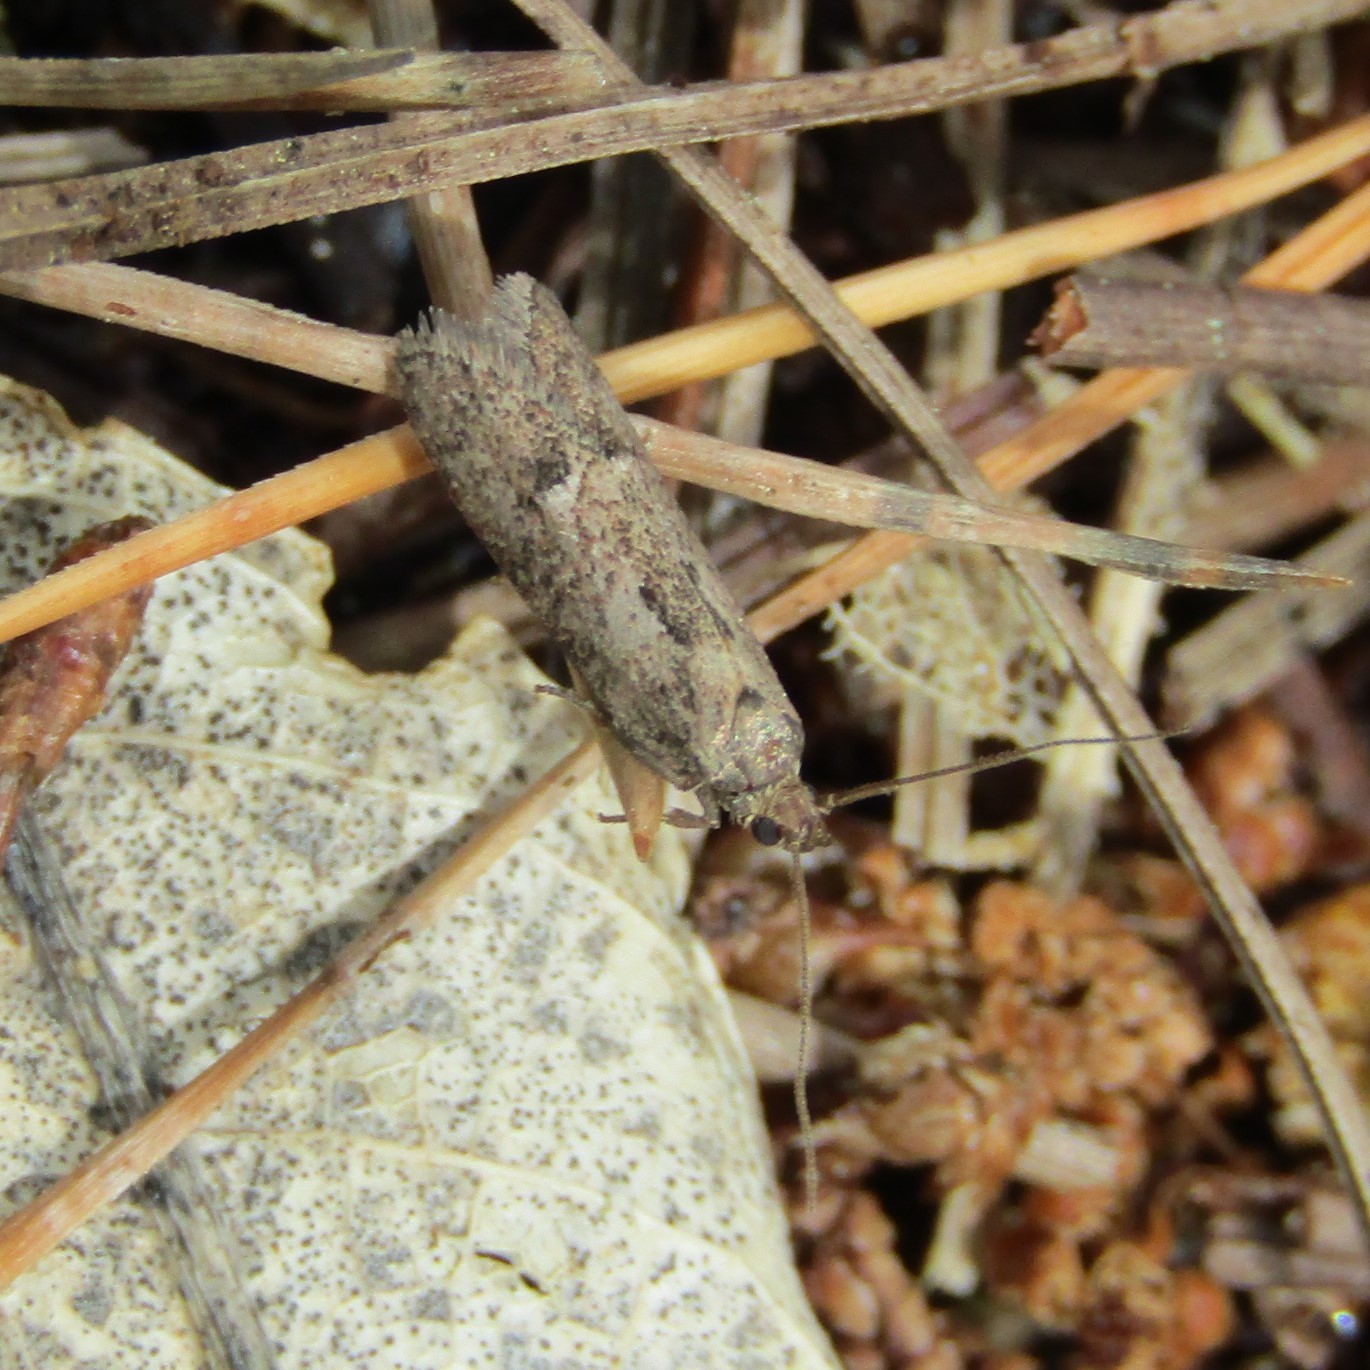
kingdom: Animalia
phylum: Arthropoda
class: Insecta
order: Lepidoptera
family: Oecophoridae
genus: Chersadaula
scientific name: Chersadaula ochrogastra
